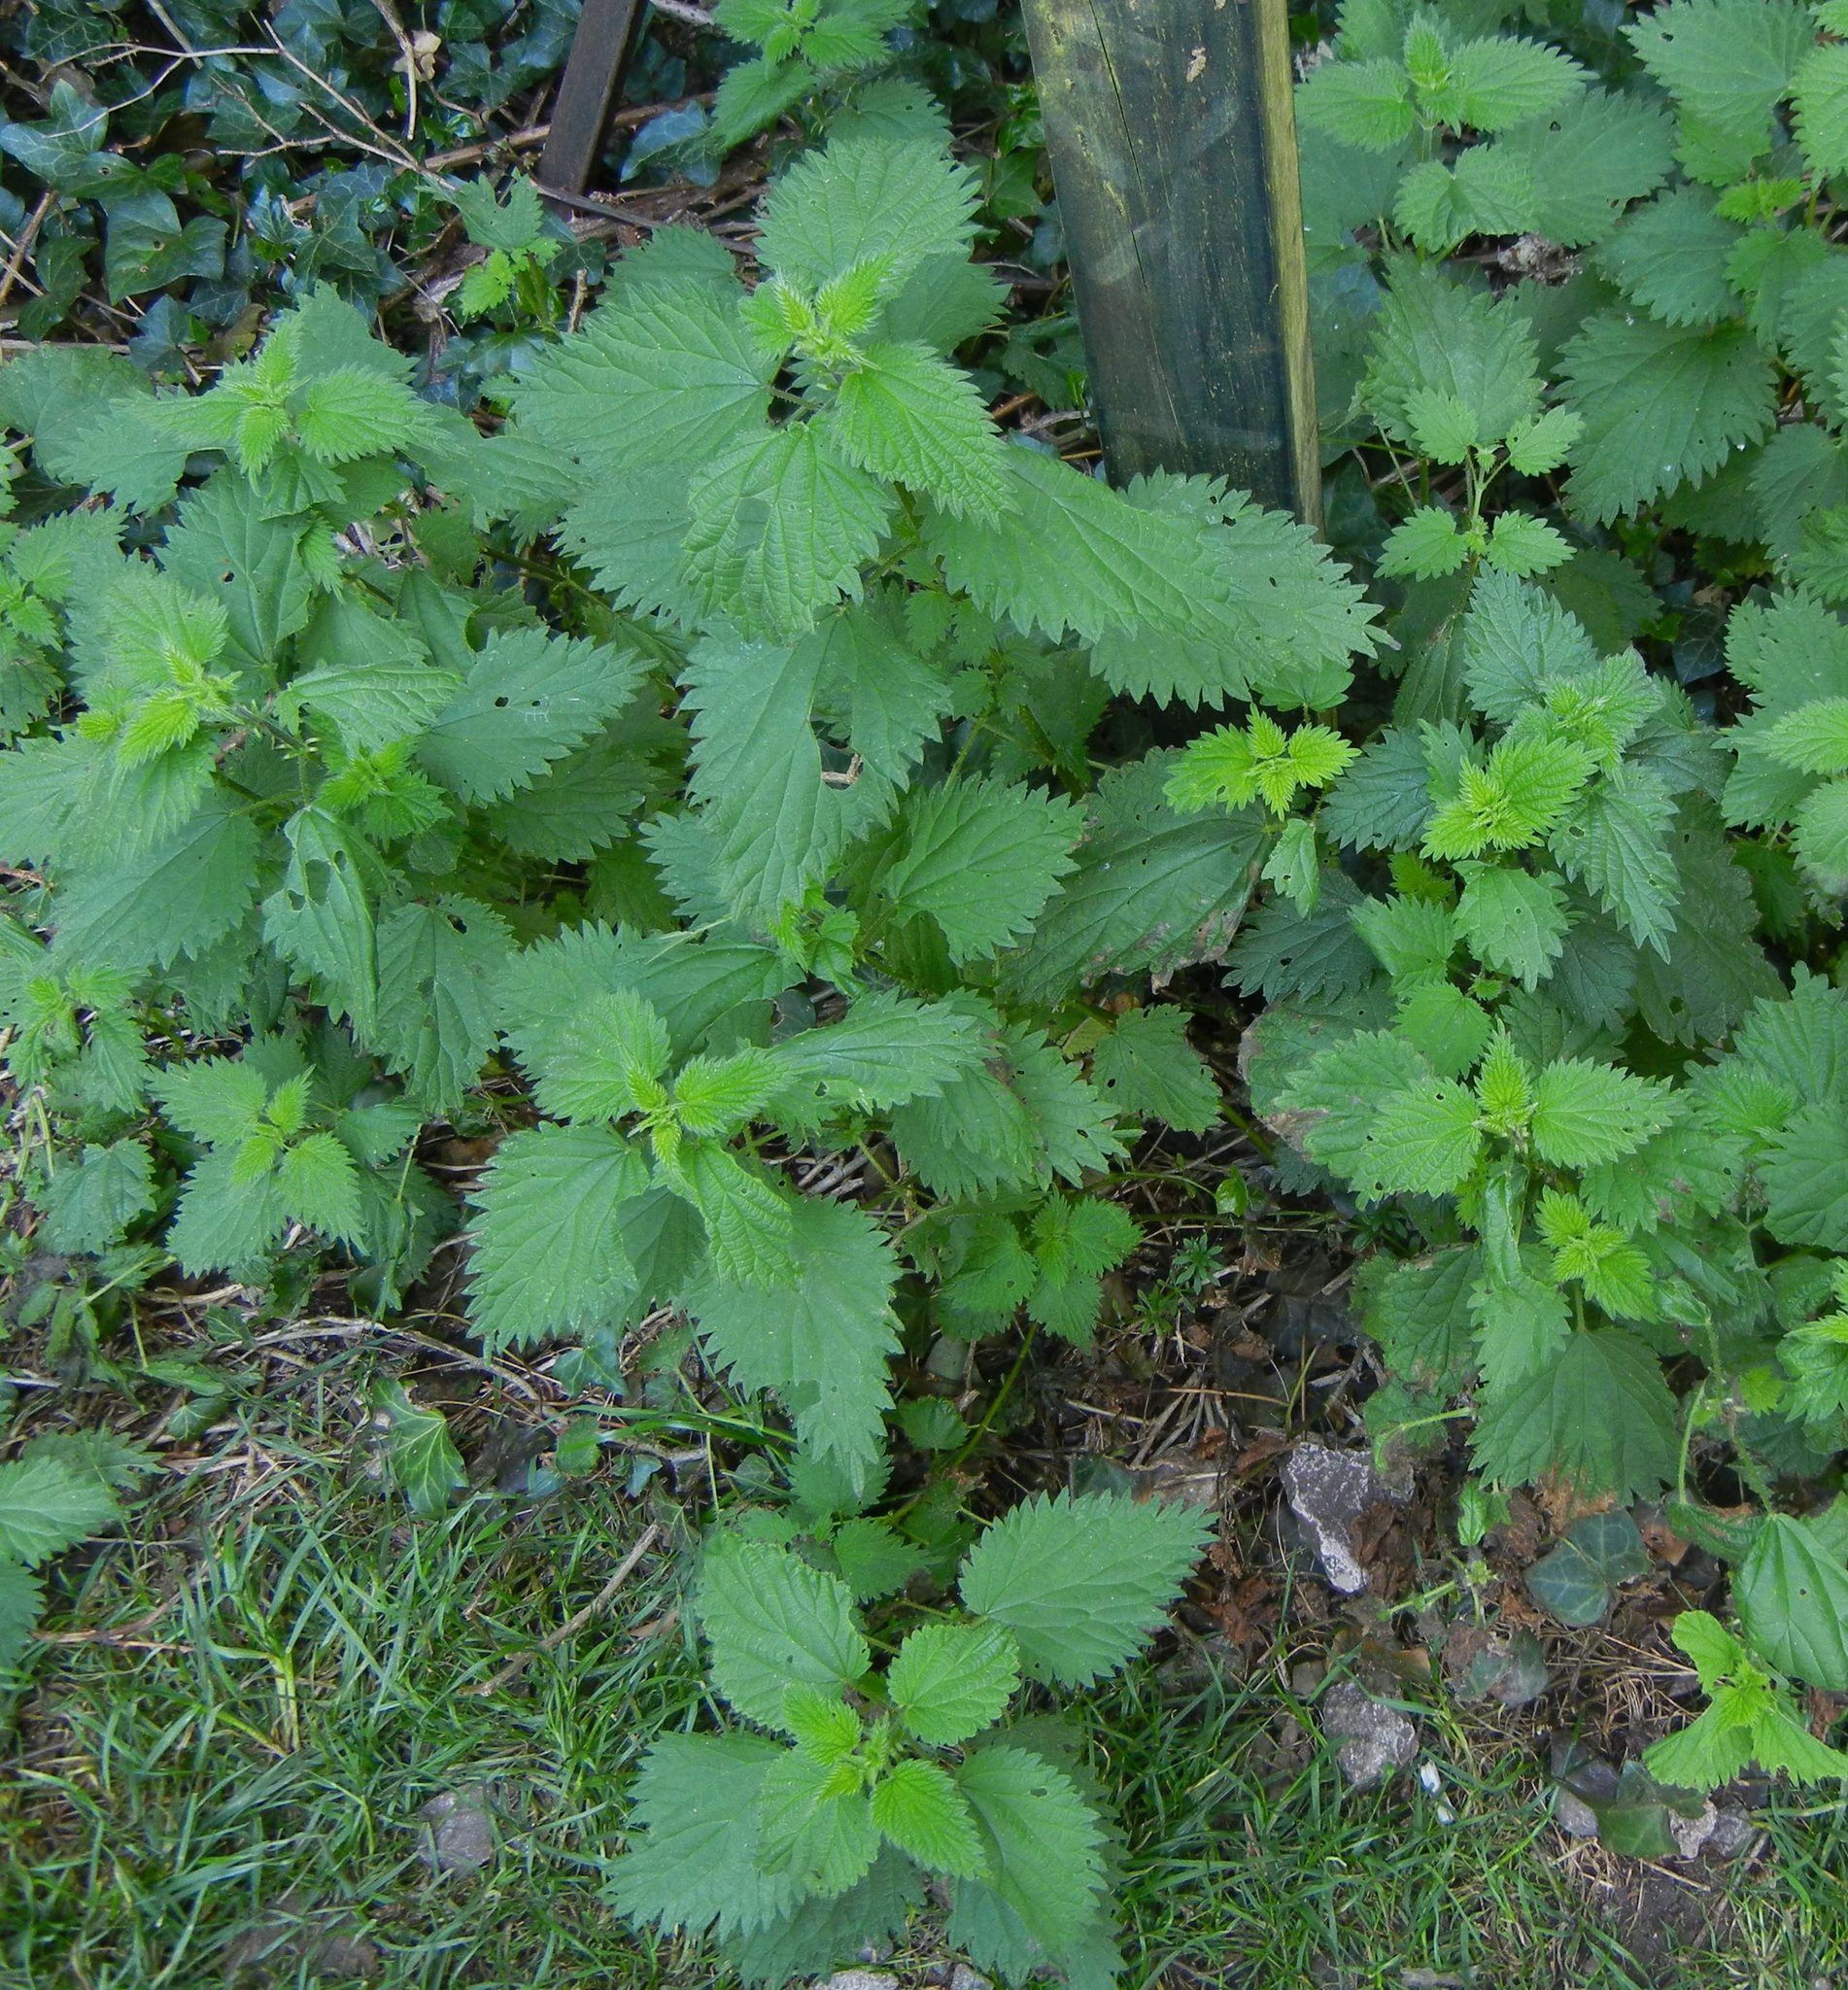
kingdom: Plantae
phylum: Tracheophyta
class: Magnoliopsida
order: Rosales
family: Urticaceae
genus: Urtica
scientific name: Urtica dioica
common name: Common nettle
